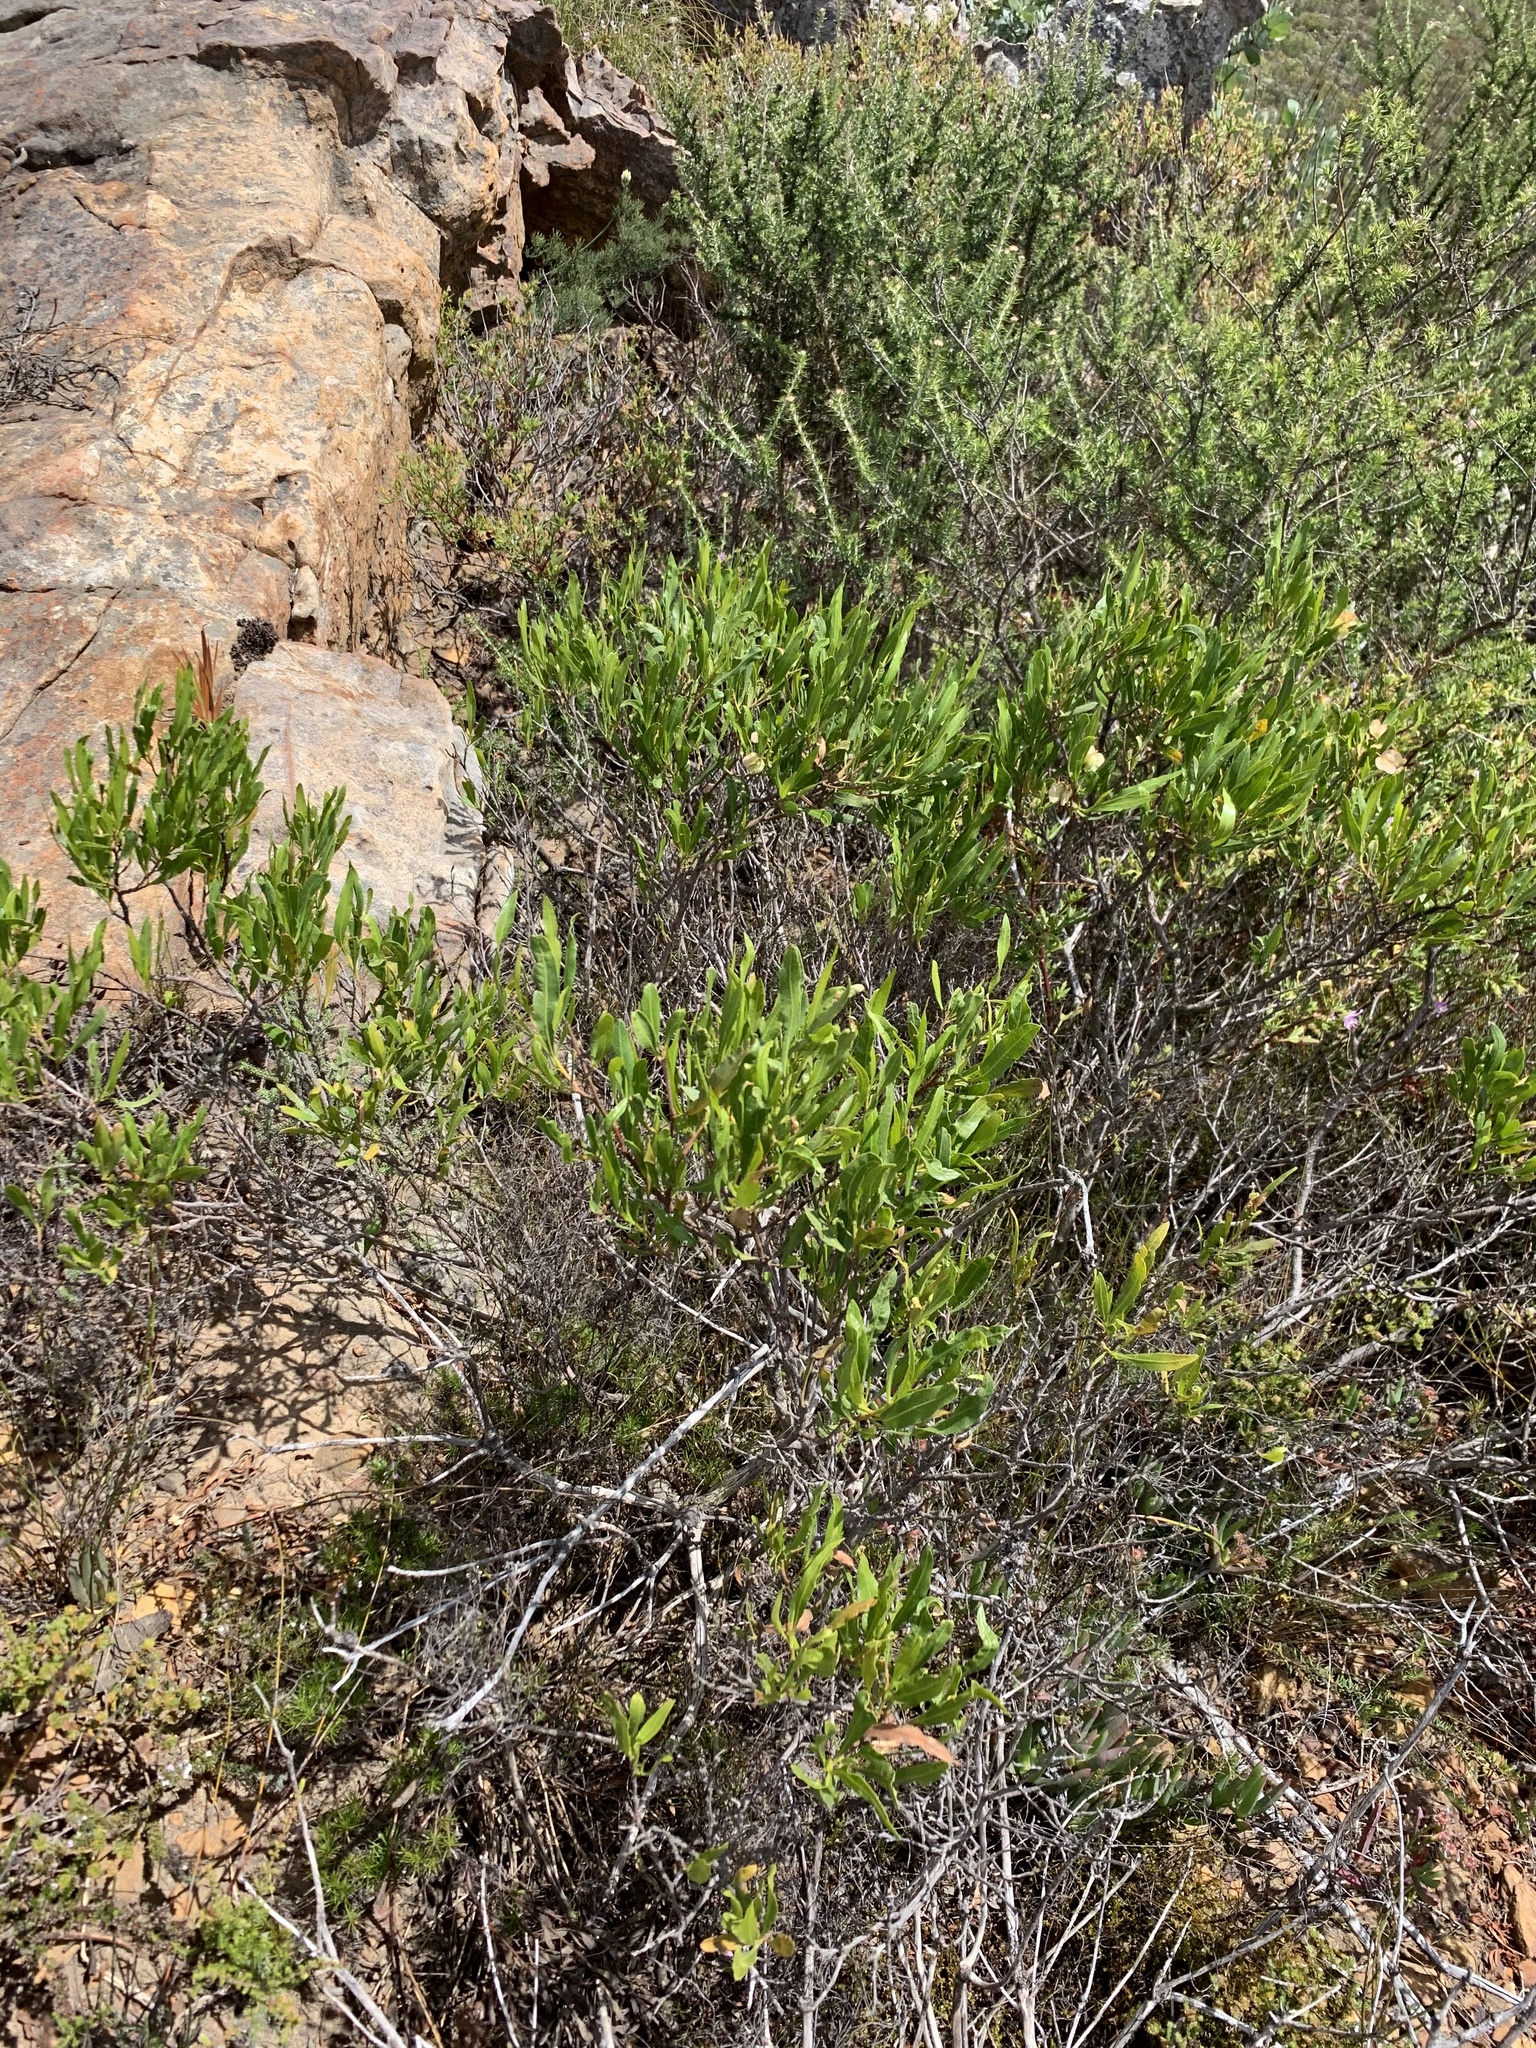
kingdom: Plantae
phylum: Tracheophyta
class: Magnoliopsida
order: Sapindales
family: Sapindaceae
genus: Dodonaea
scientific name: Dodonaea viscosa
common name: Hopbush
